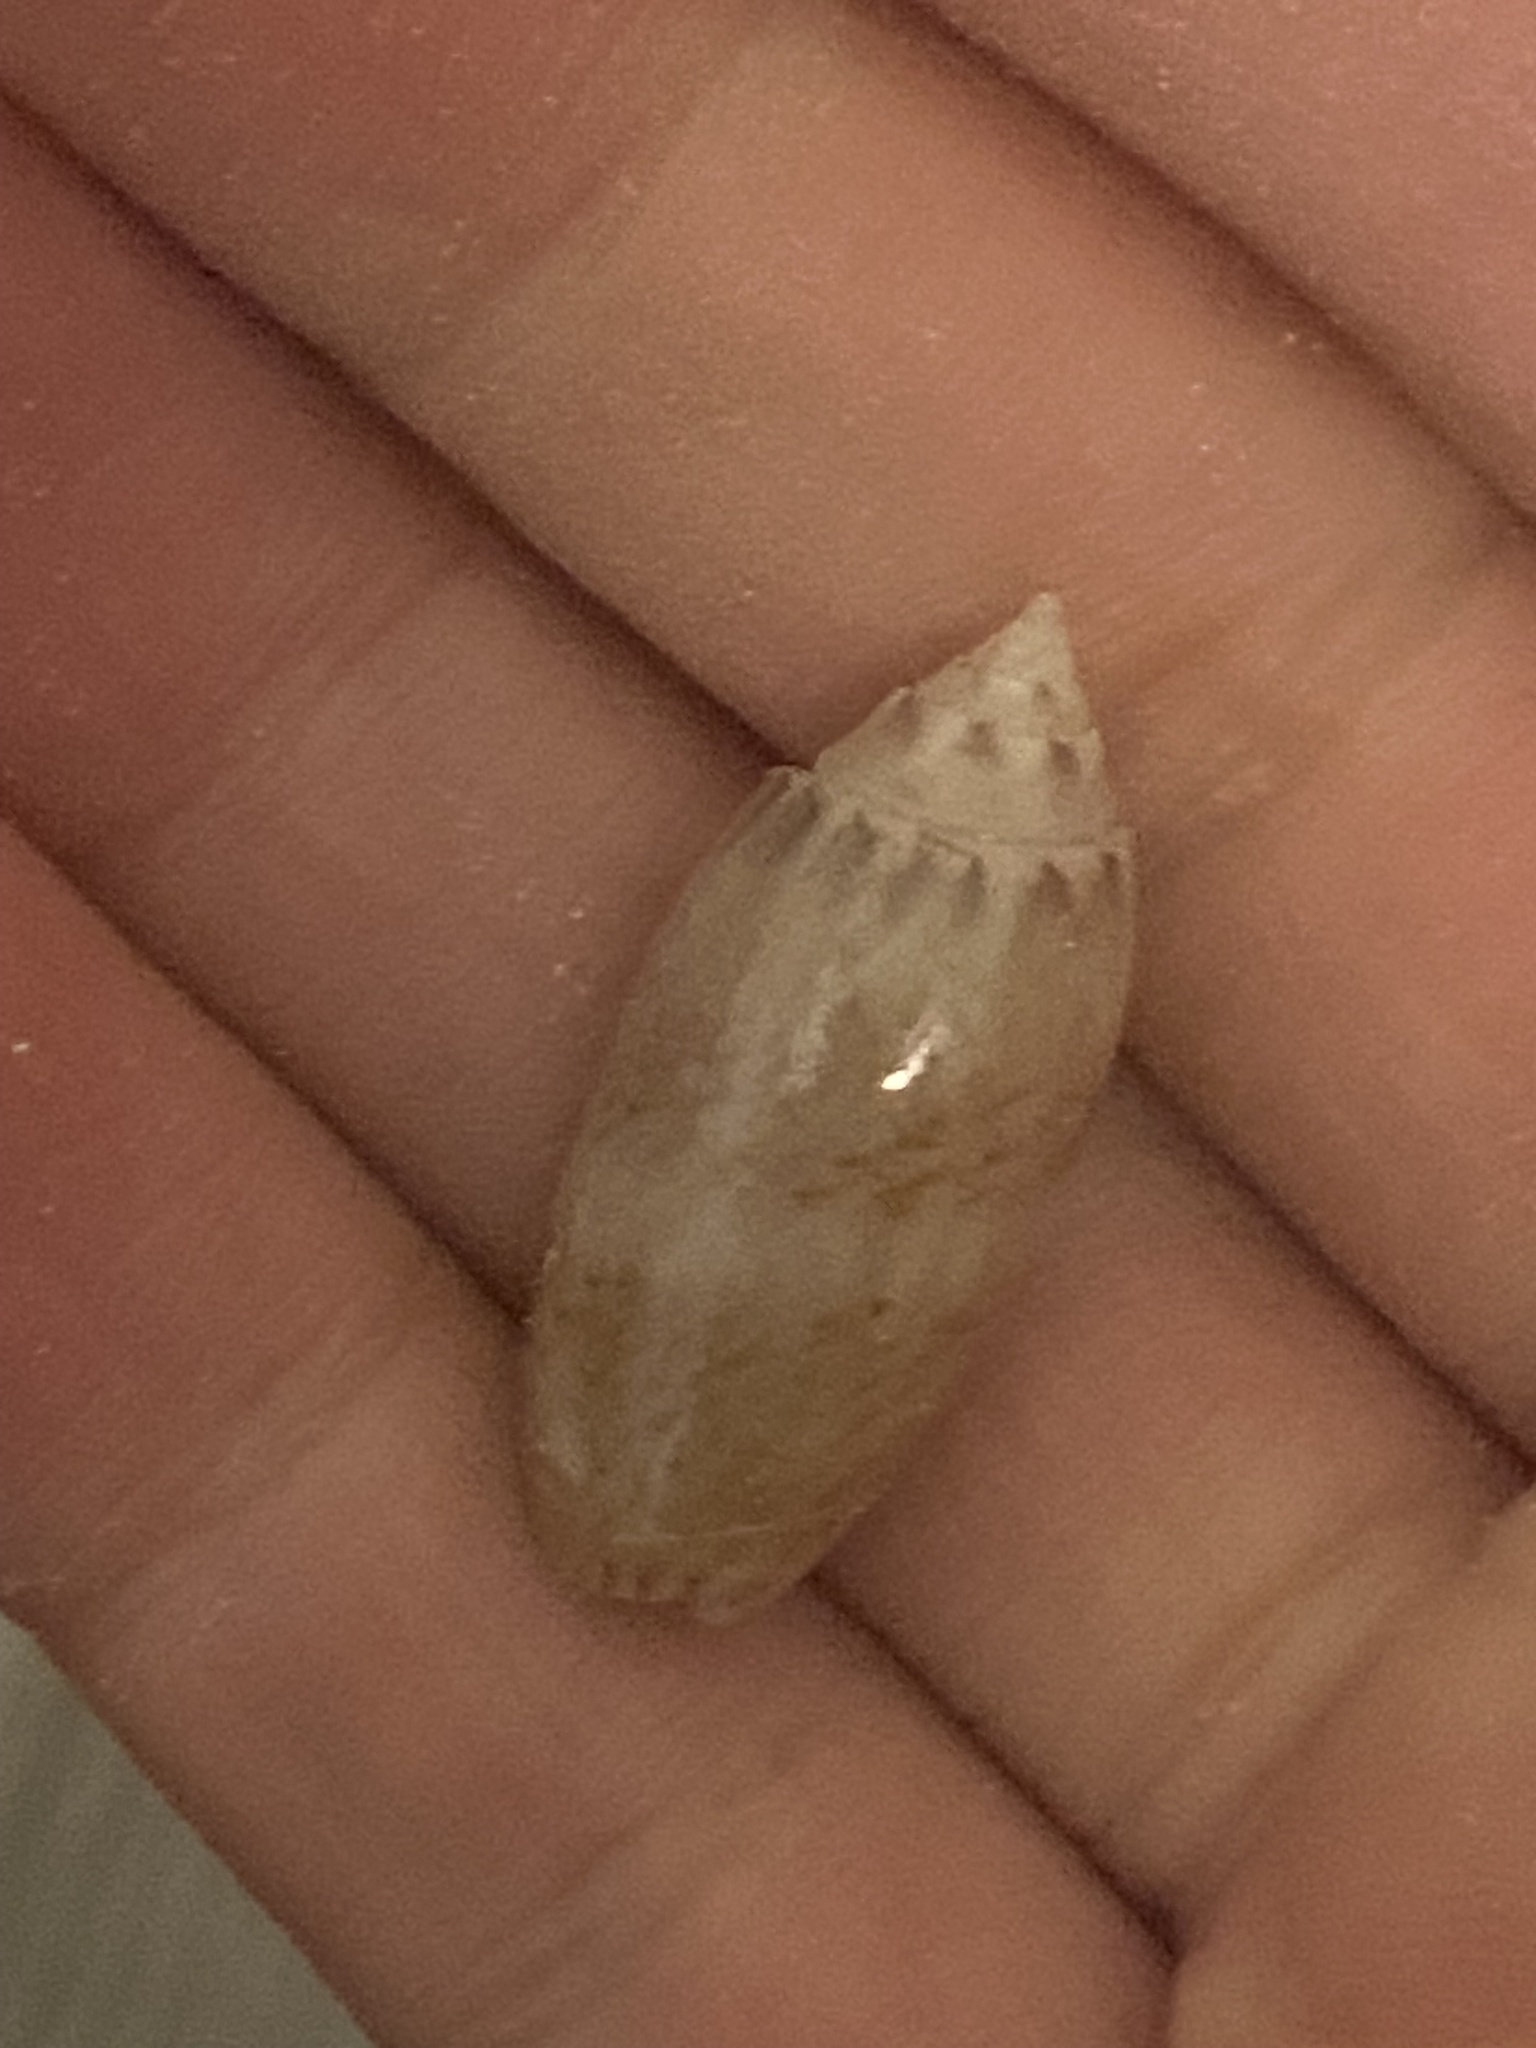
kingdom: Animalia
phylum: Mollusca
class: Gastropoda
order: Neogastropoda
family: Olividae
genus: Oliva
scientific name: Oliva sayana
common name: Lettered olive
